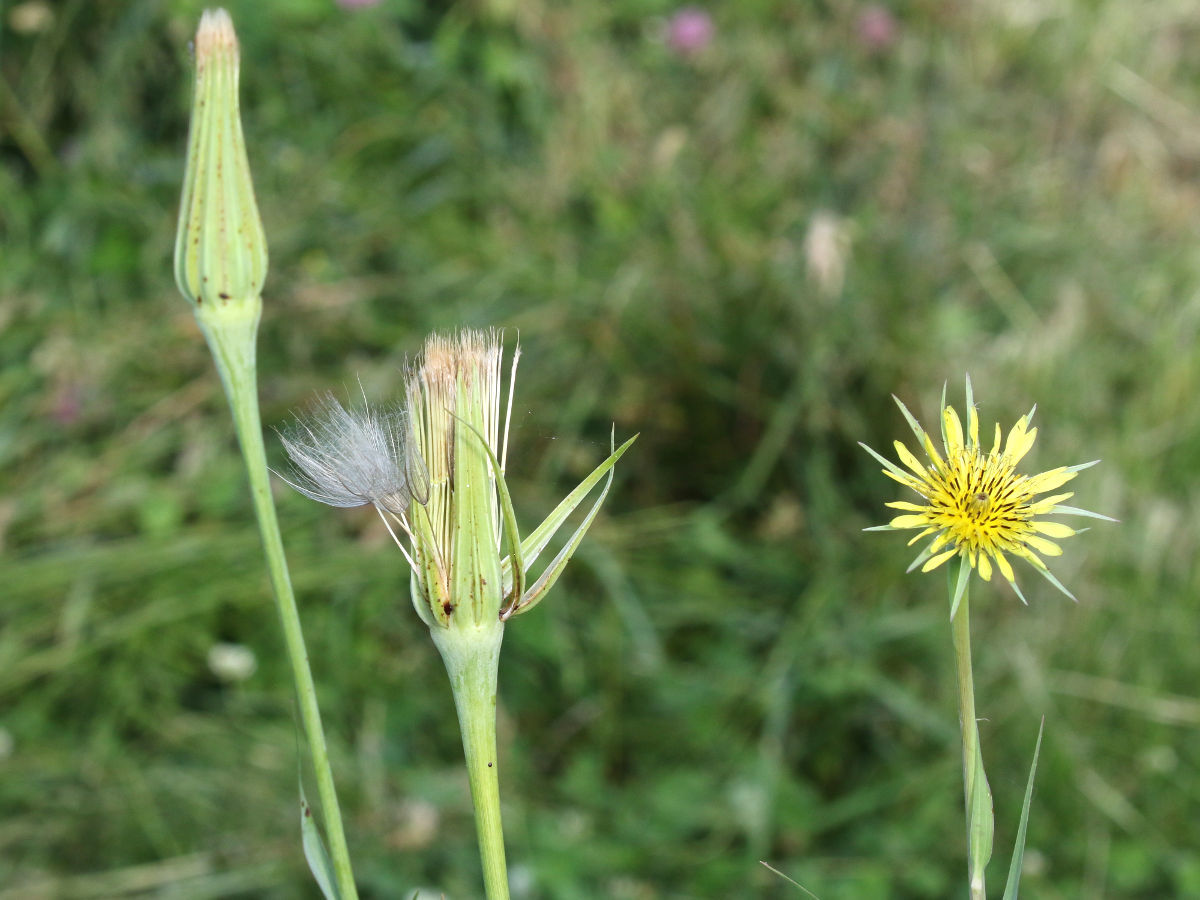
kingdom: Plantae
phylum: Tracheophyta
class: Magnoliopsida
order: Asterales
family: Asteraceae
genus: Tragopogon
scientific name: Tragopogon dubius
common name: Yellow salsify
